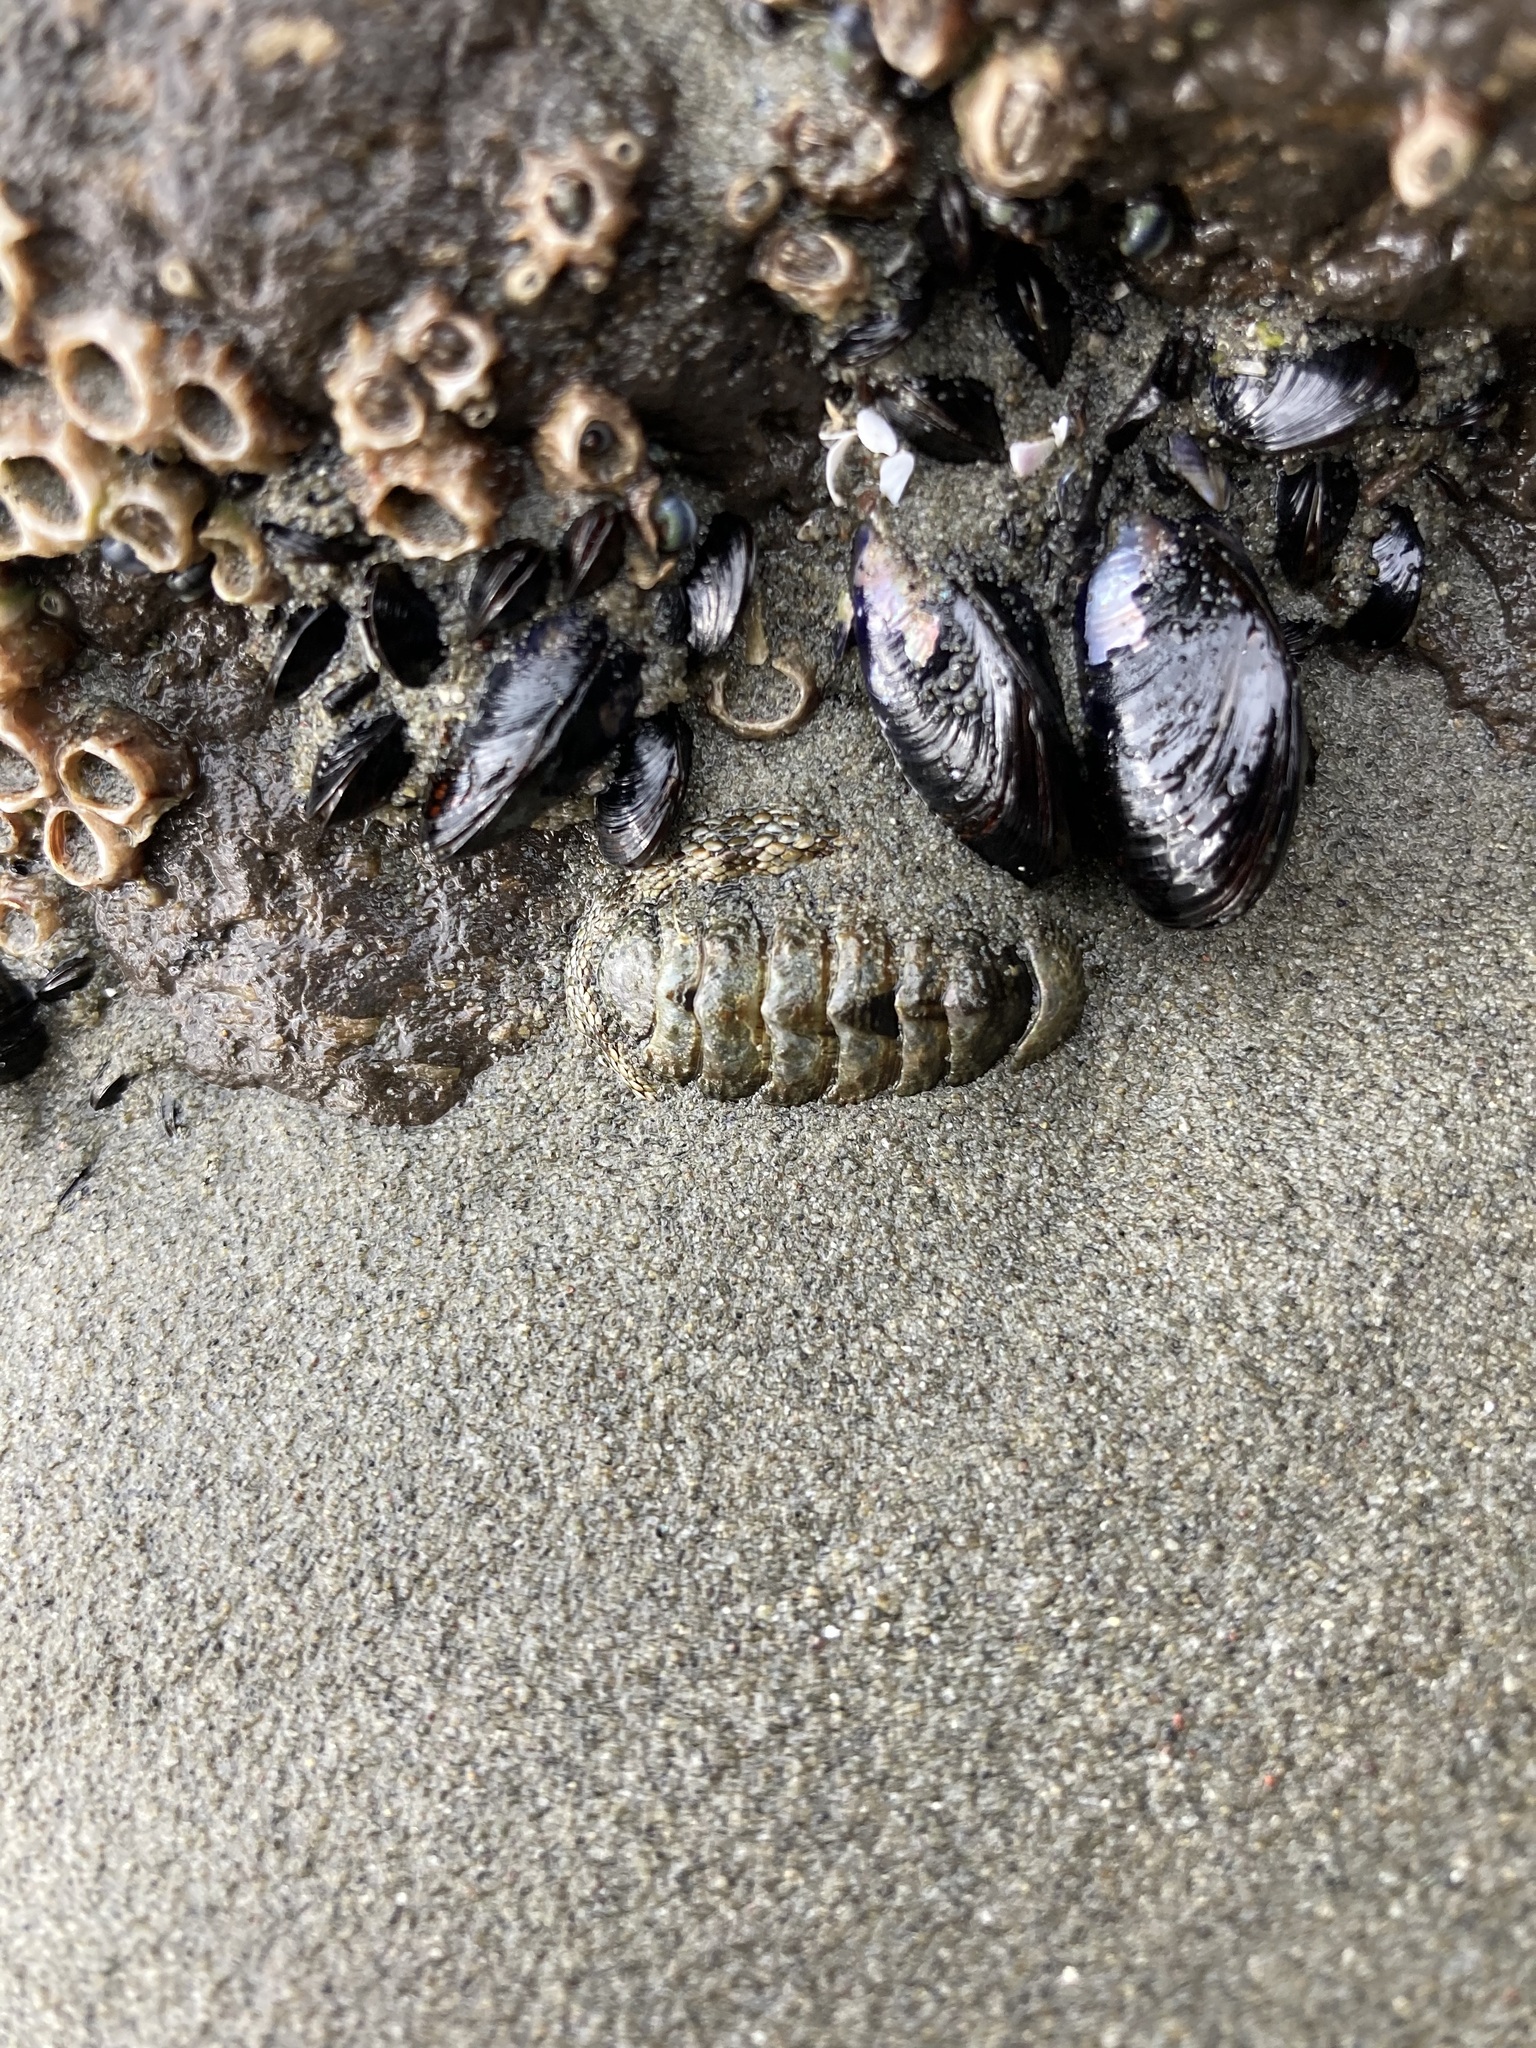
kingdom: Animalia
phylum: Mollusca
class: Polyplacophora
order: Chitonida
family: Chitonidae
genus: Sypharochiton
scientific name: Sypharochiton pelliserpentis
